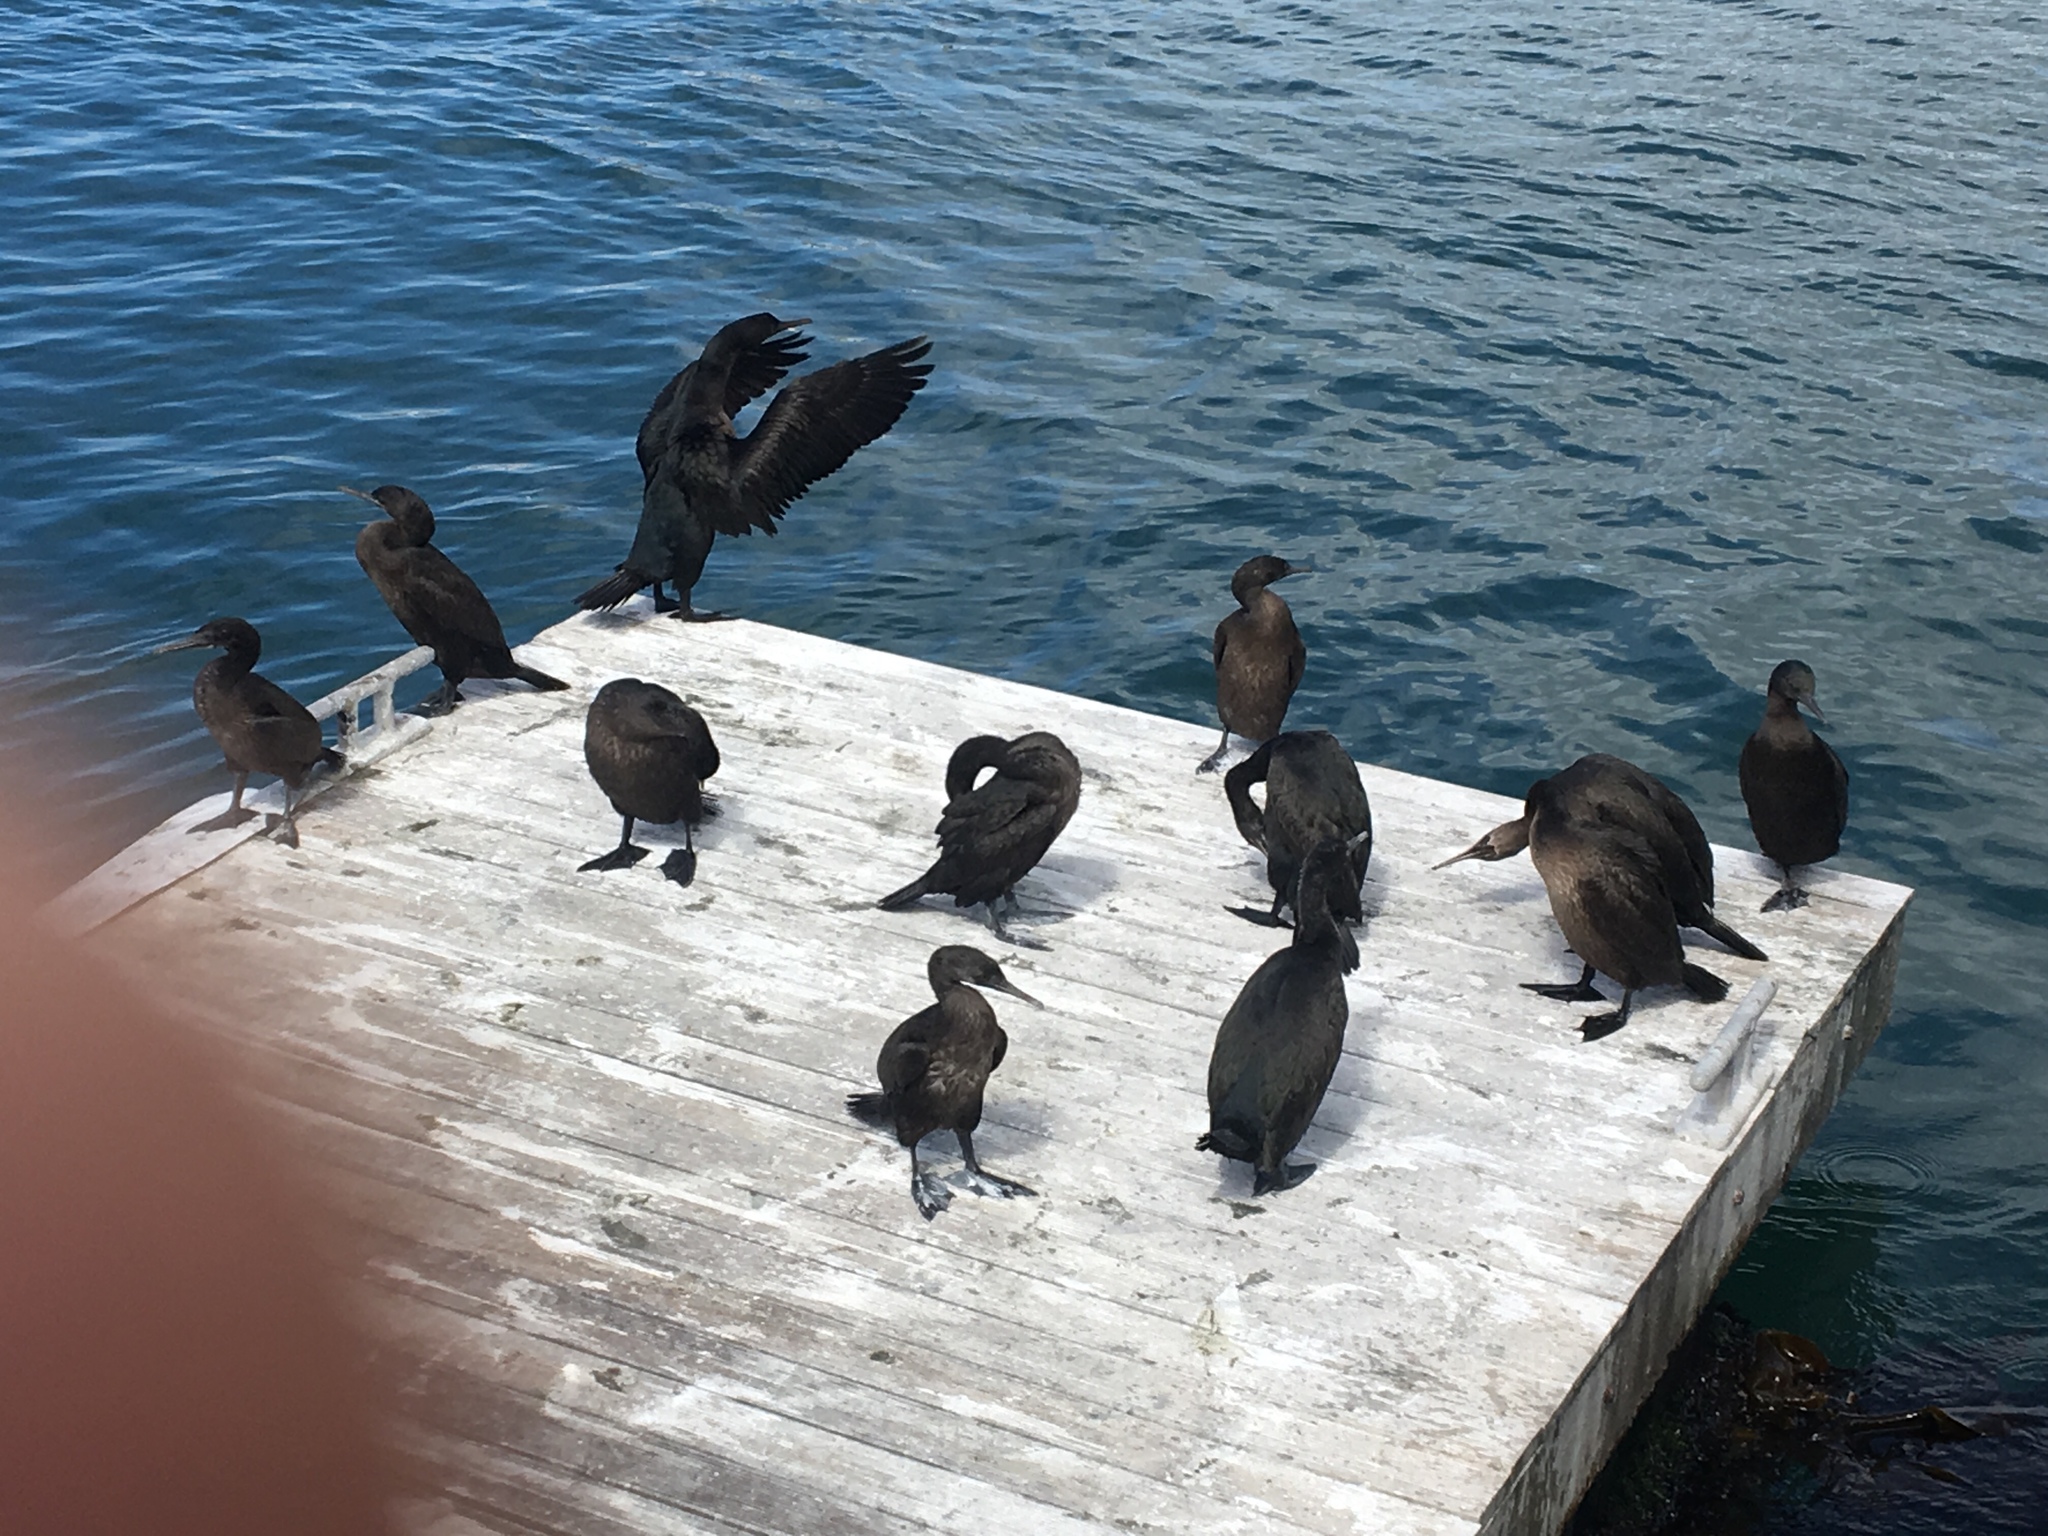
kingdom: Animalia
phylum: Chordata
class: Aves
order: Suliformes
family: Phalacrocoracidae
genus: Phalacrocorax
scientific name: Phalacrocorax neglectus
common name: Bank cormorant
